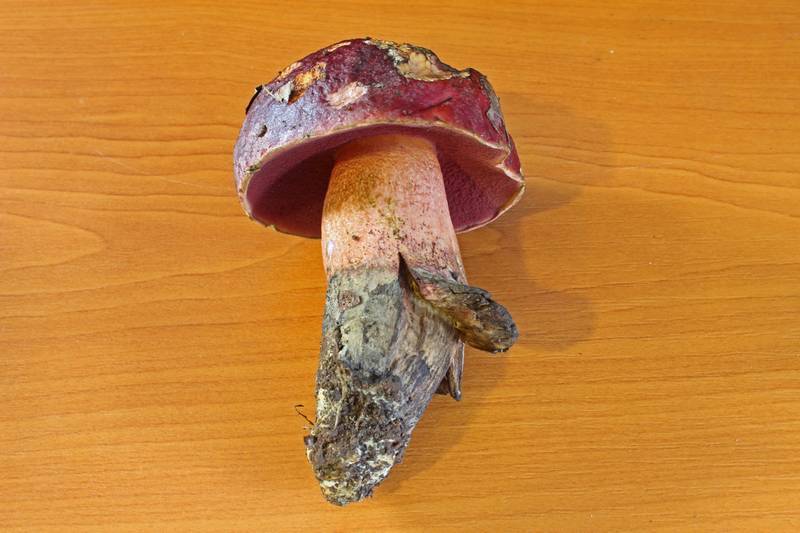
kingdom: Fungi
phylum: Basidiomycota
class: Agaricomycetes
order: Boletales
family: Boletaceae
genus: Rubroboletus
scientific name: Rubroboletus dupainii
